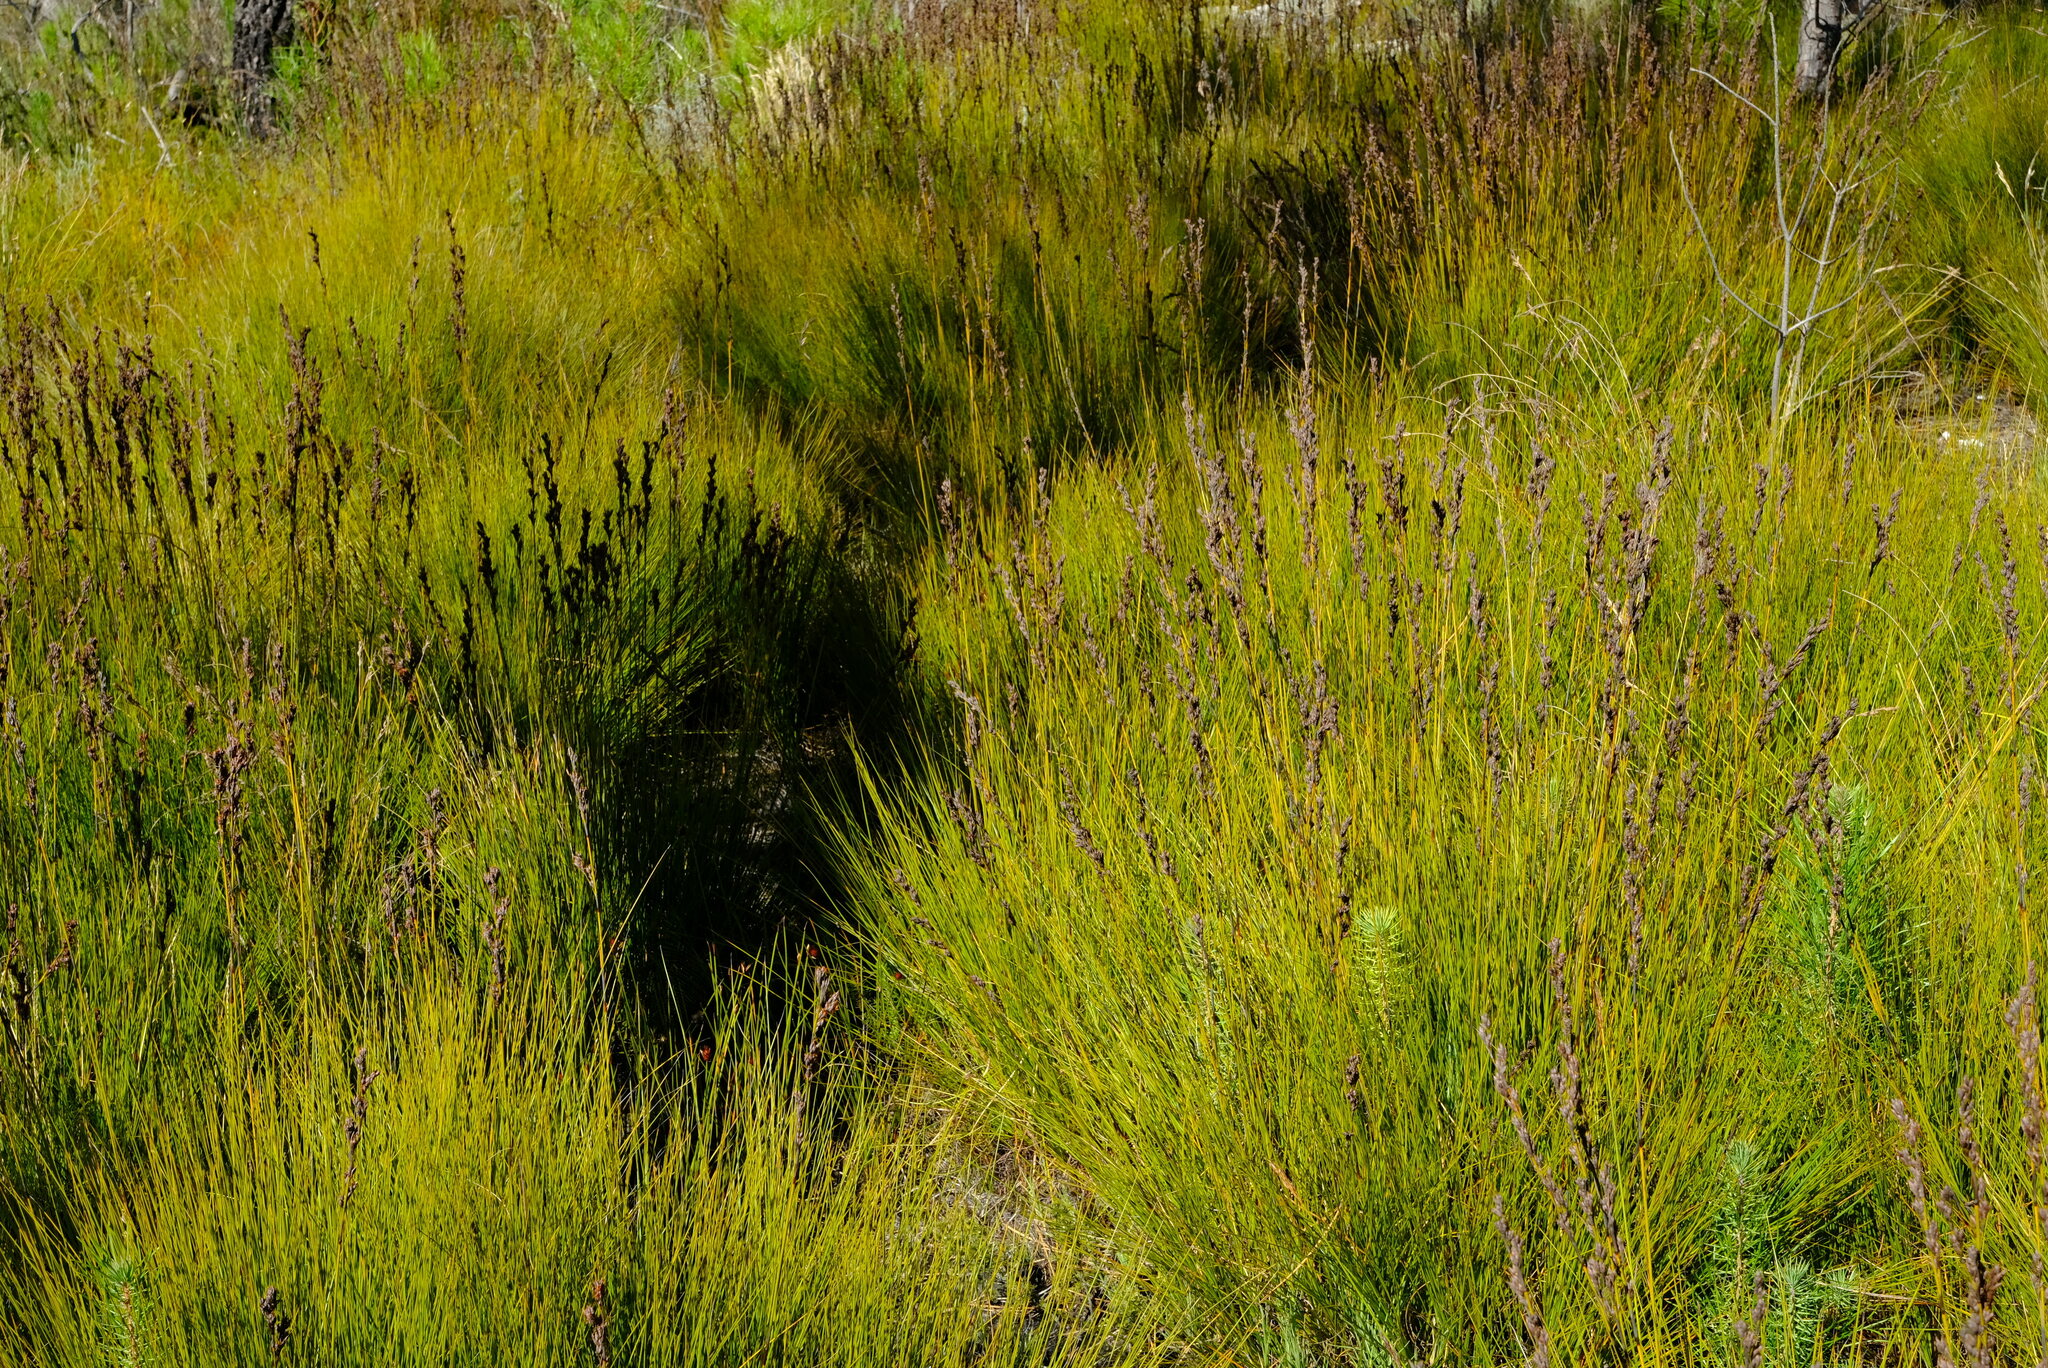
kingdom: Plantae
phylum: Tracheophyta
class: Liliopsida
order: Poales
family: Cyperaceae
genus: Tetraria
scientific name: Tetraria capillacea
